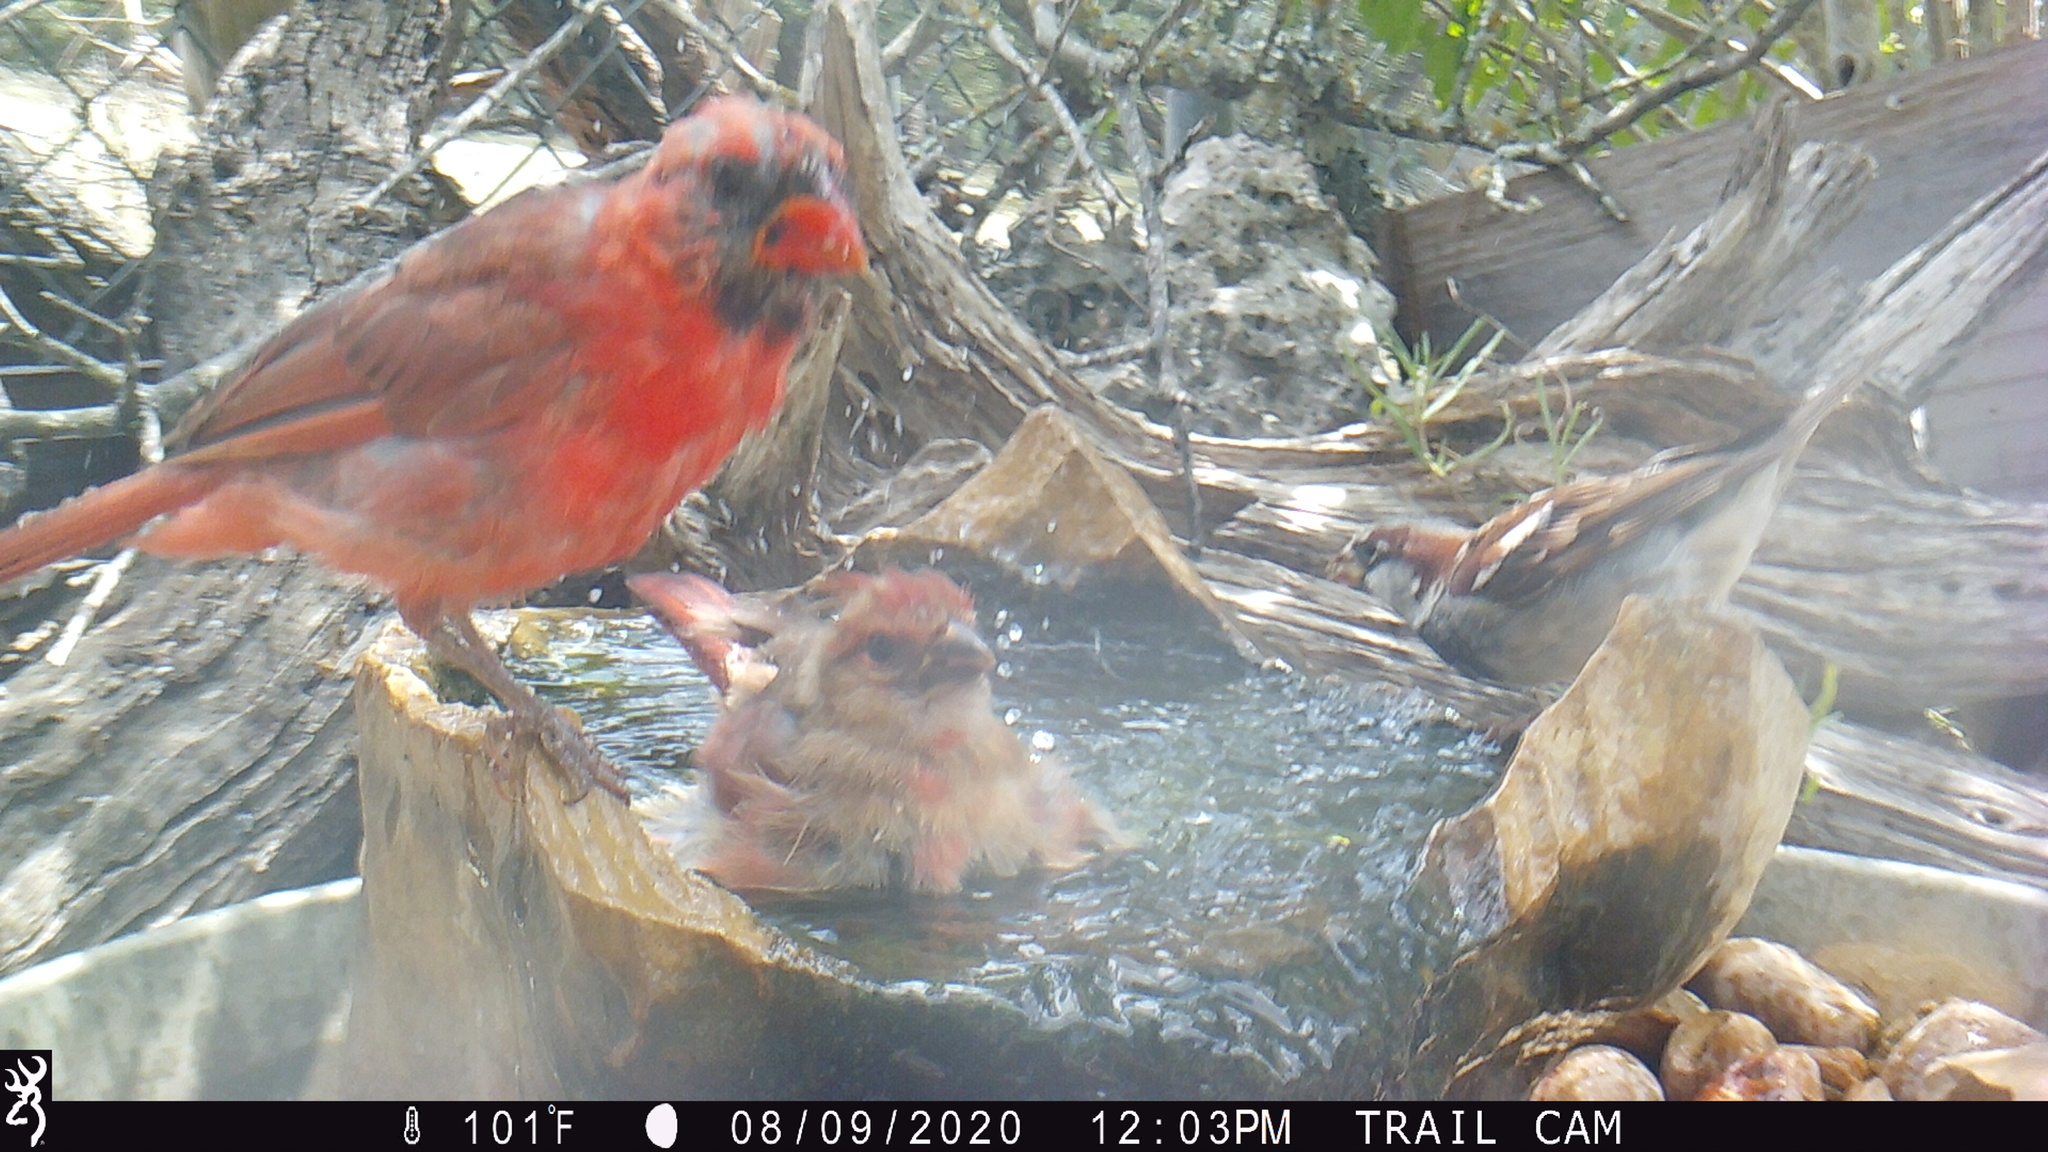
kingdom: Animalia
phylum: Chordata
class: Aves
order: Passeriformes
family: Cardinalidae
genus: Cardinalis
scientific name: Cardinalis cardinalis
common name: Northern cardinal
